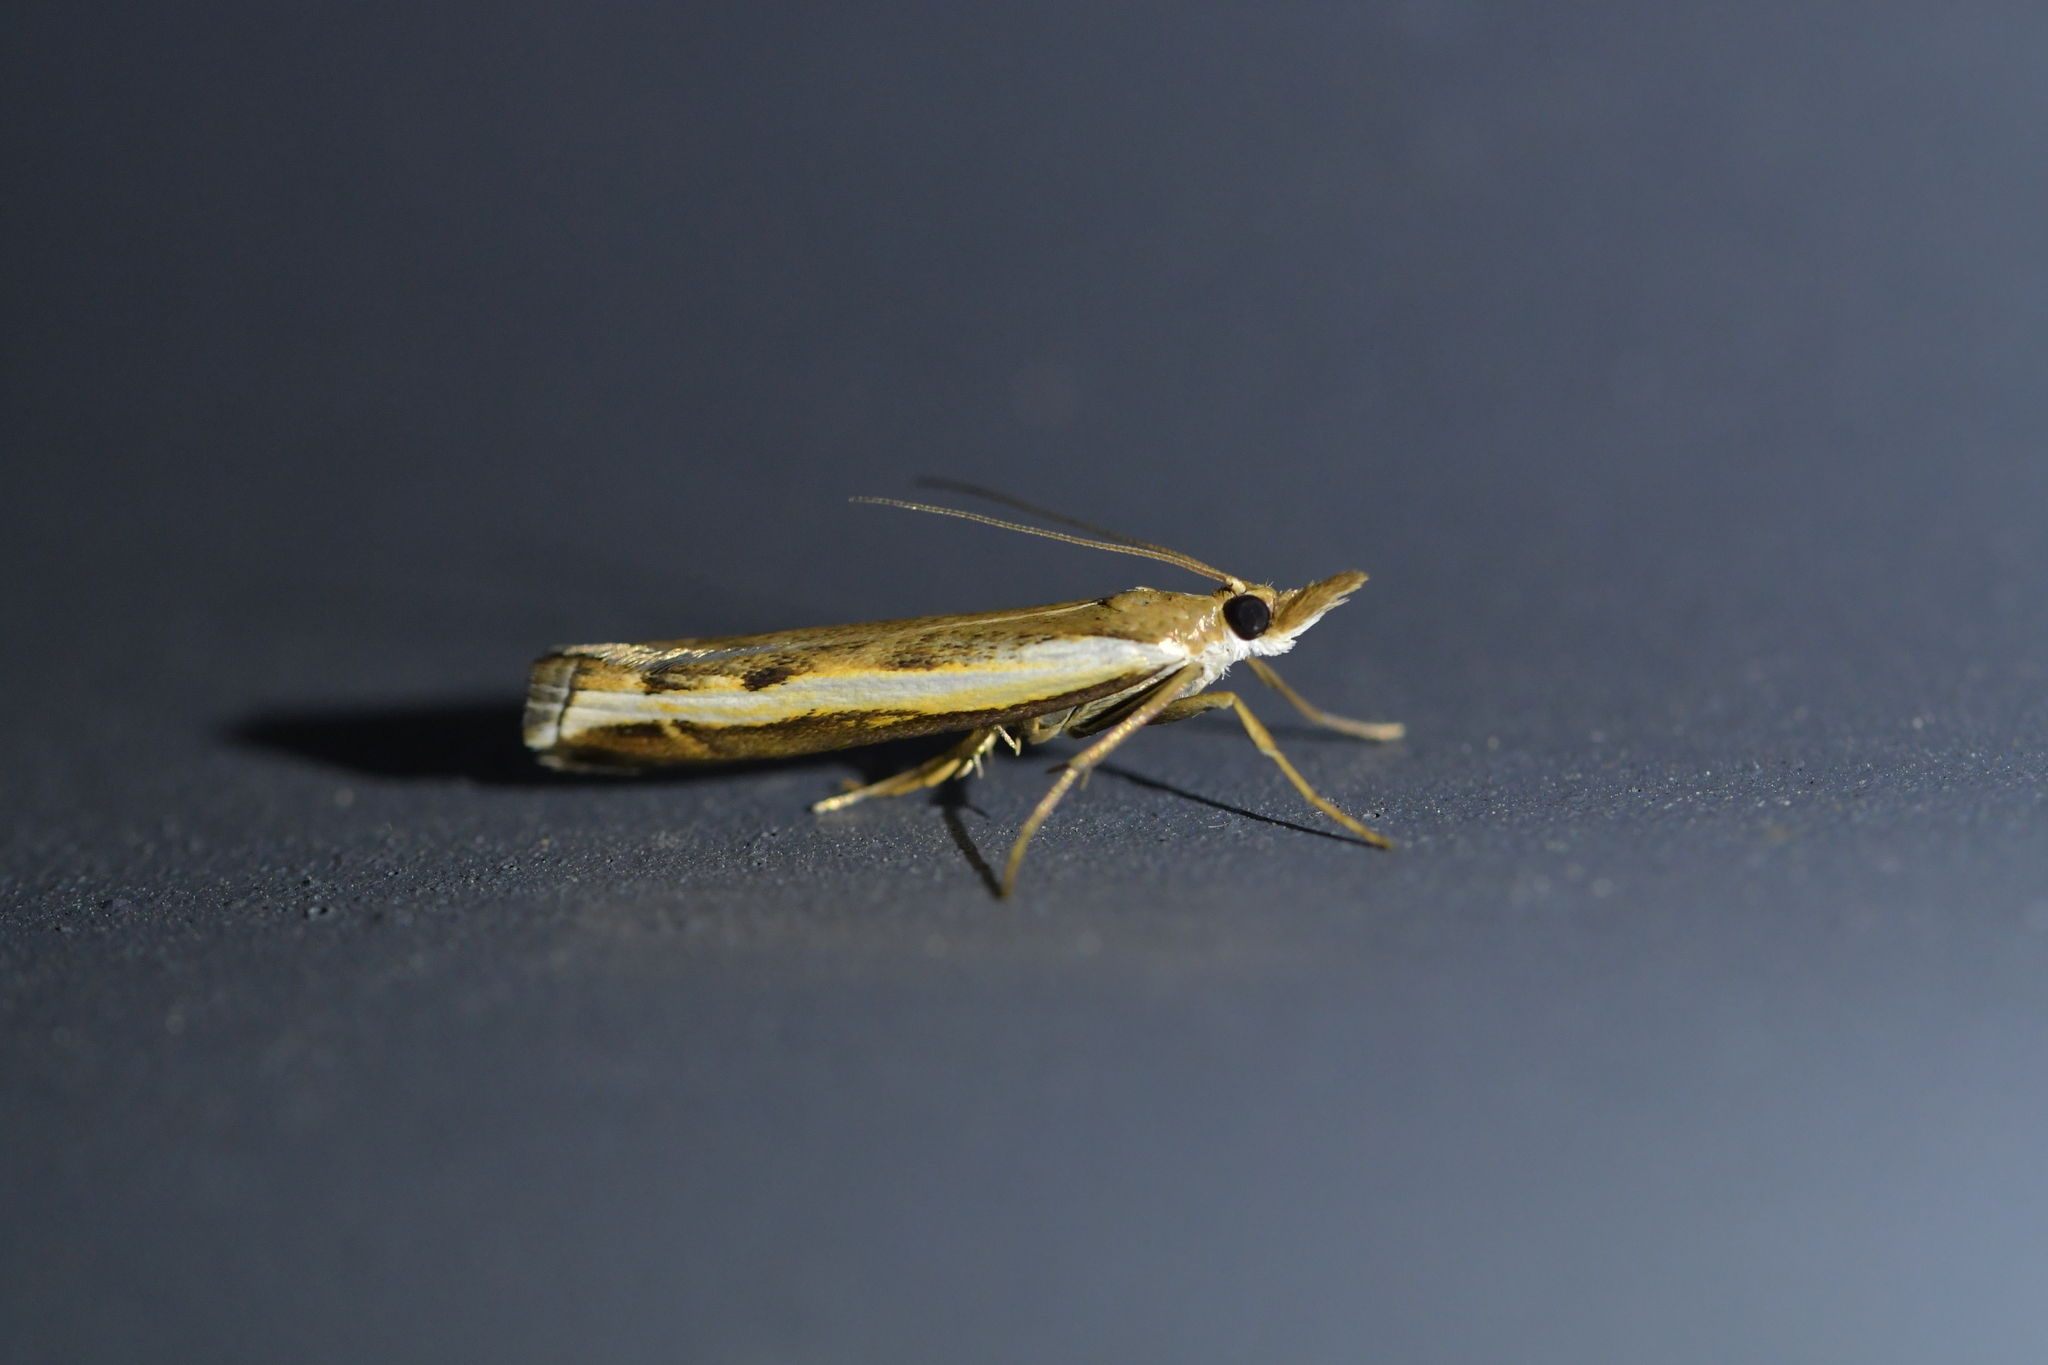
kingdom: Animalia
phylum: Arthropoda
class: Insecta
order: Lepidoptera
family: Crambidae
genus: Orocrambus
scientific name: Orocrambus flexuosellus
